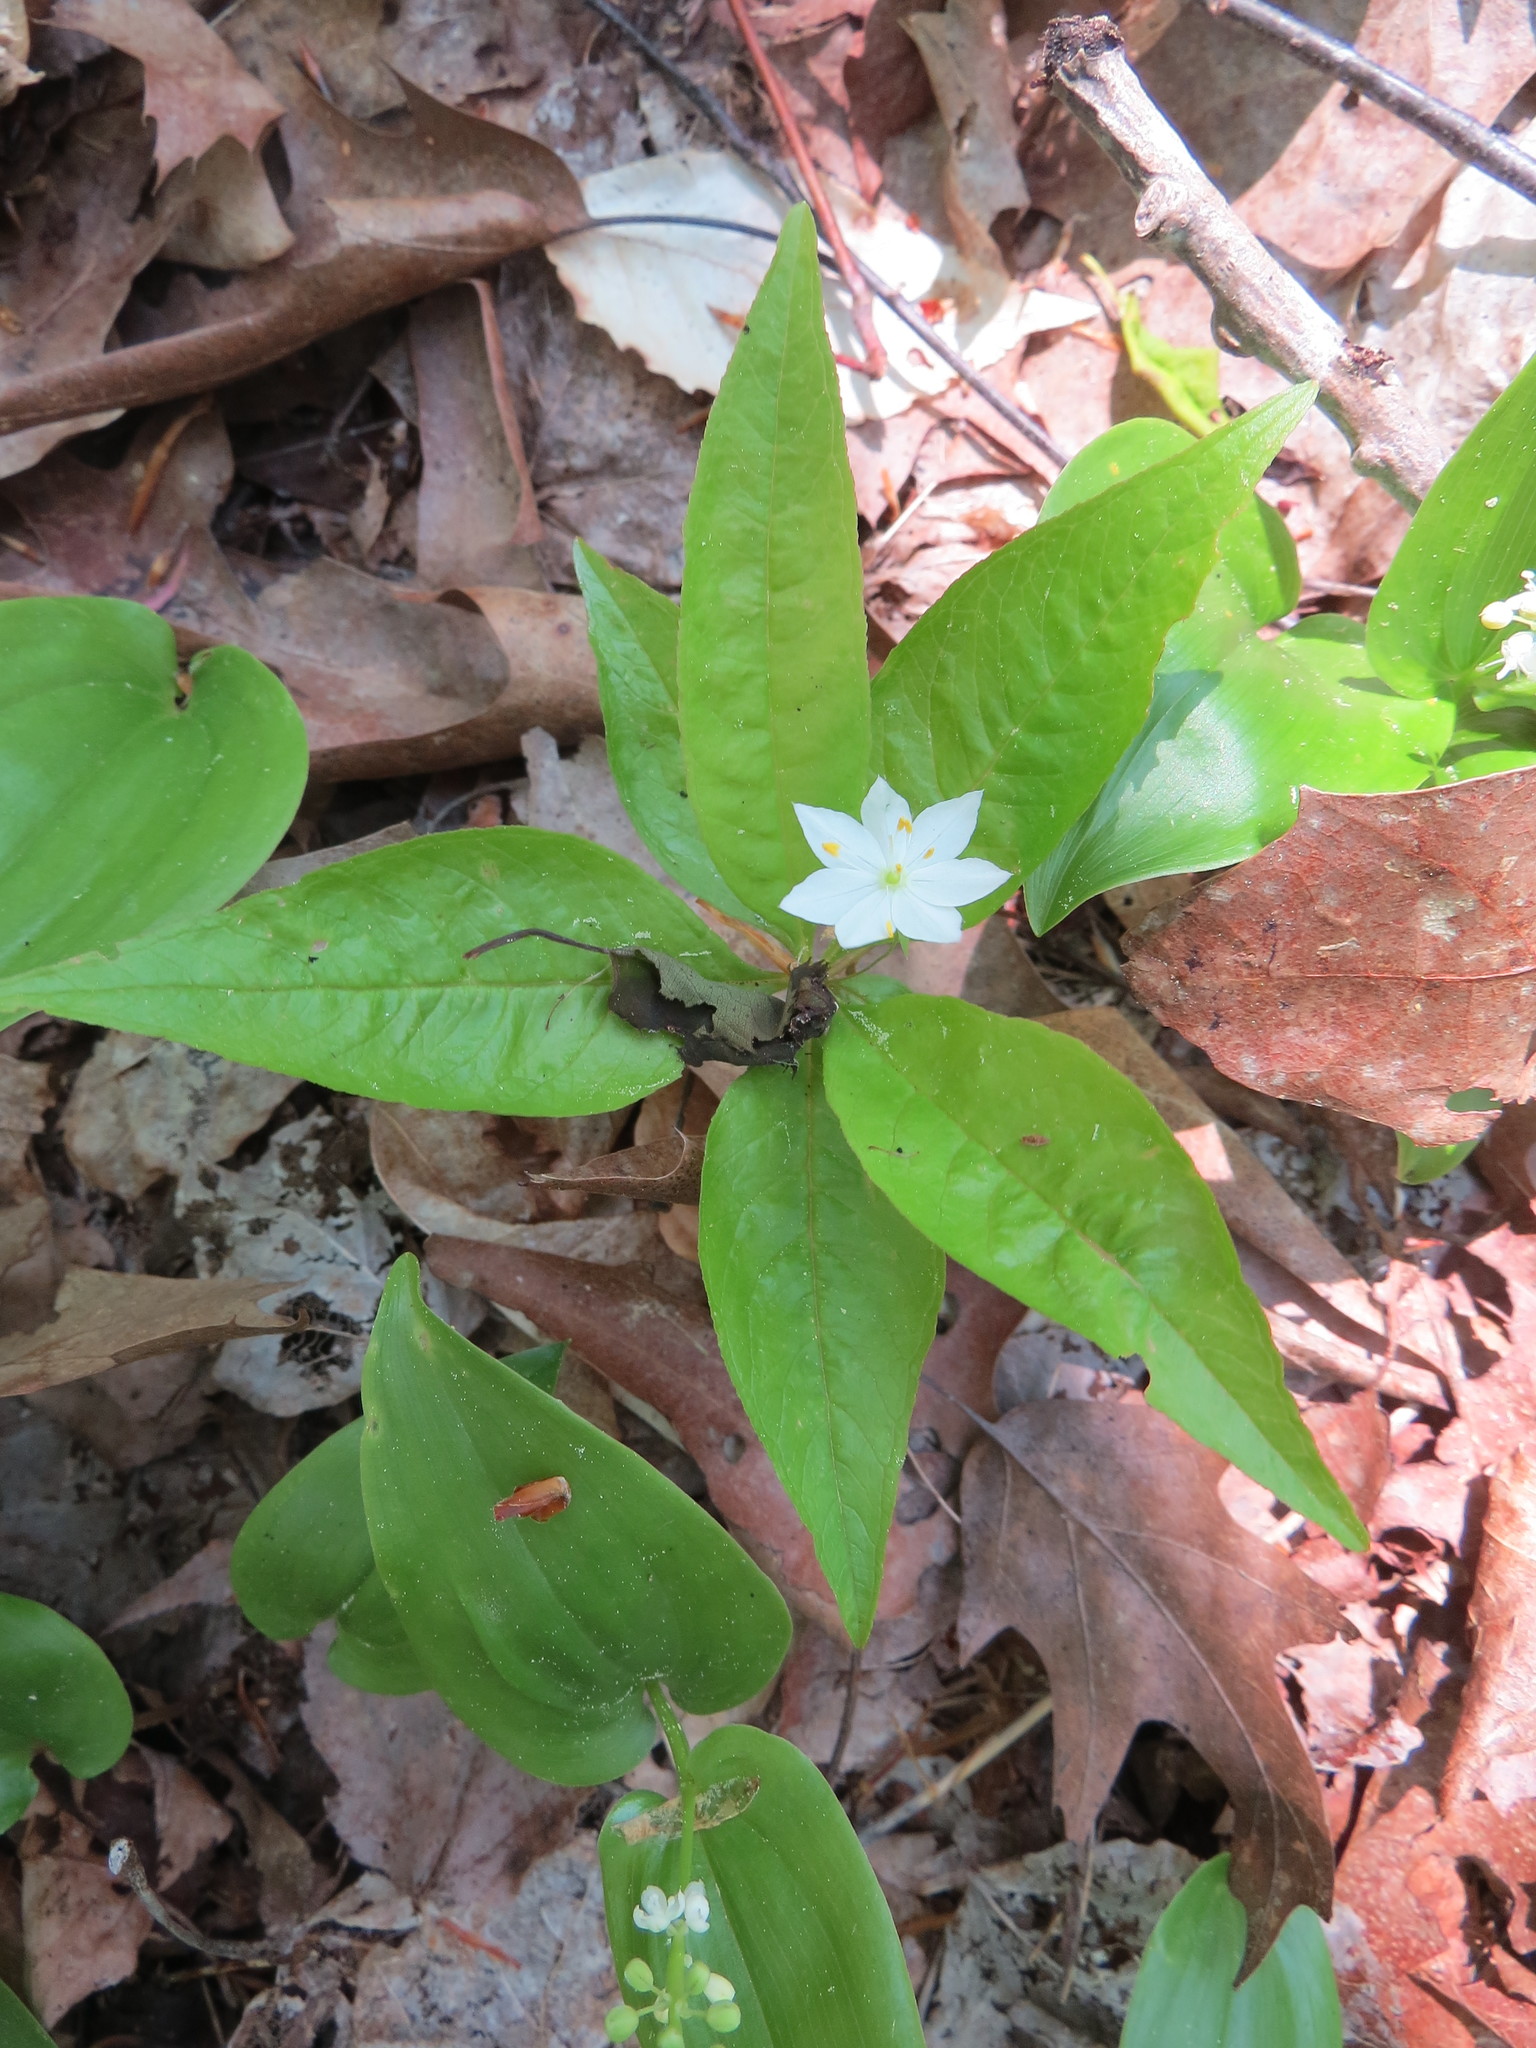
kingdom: Plantae
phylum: Tracheophyta
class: Magnoliopsida
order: Ericales
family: Primulaceae
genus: Lysimachia
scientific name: Lysimachia borealis
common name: American starflower
